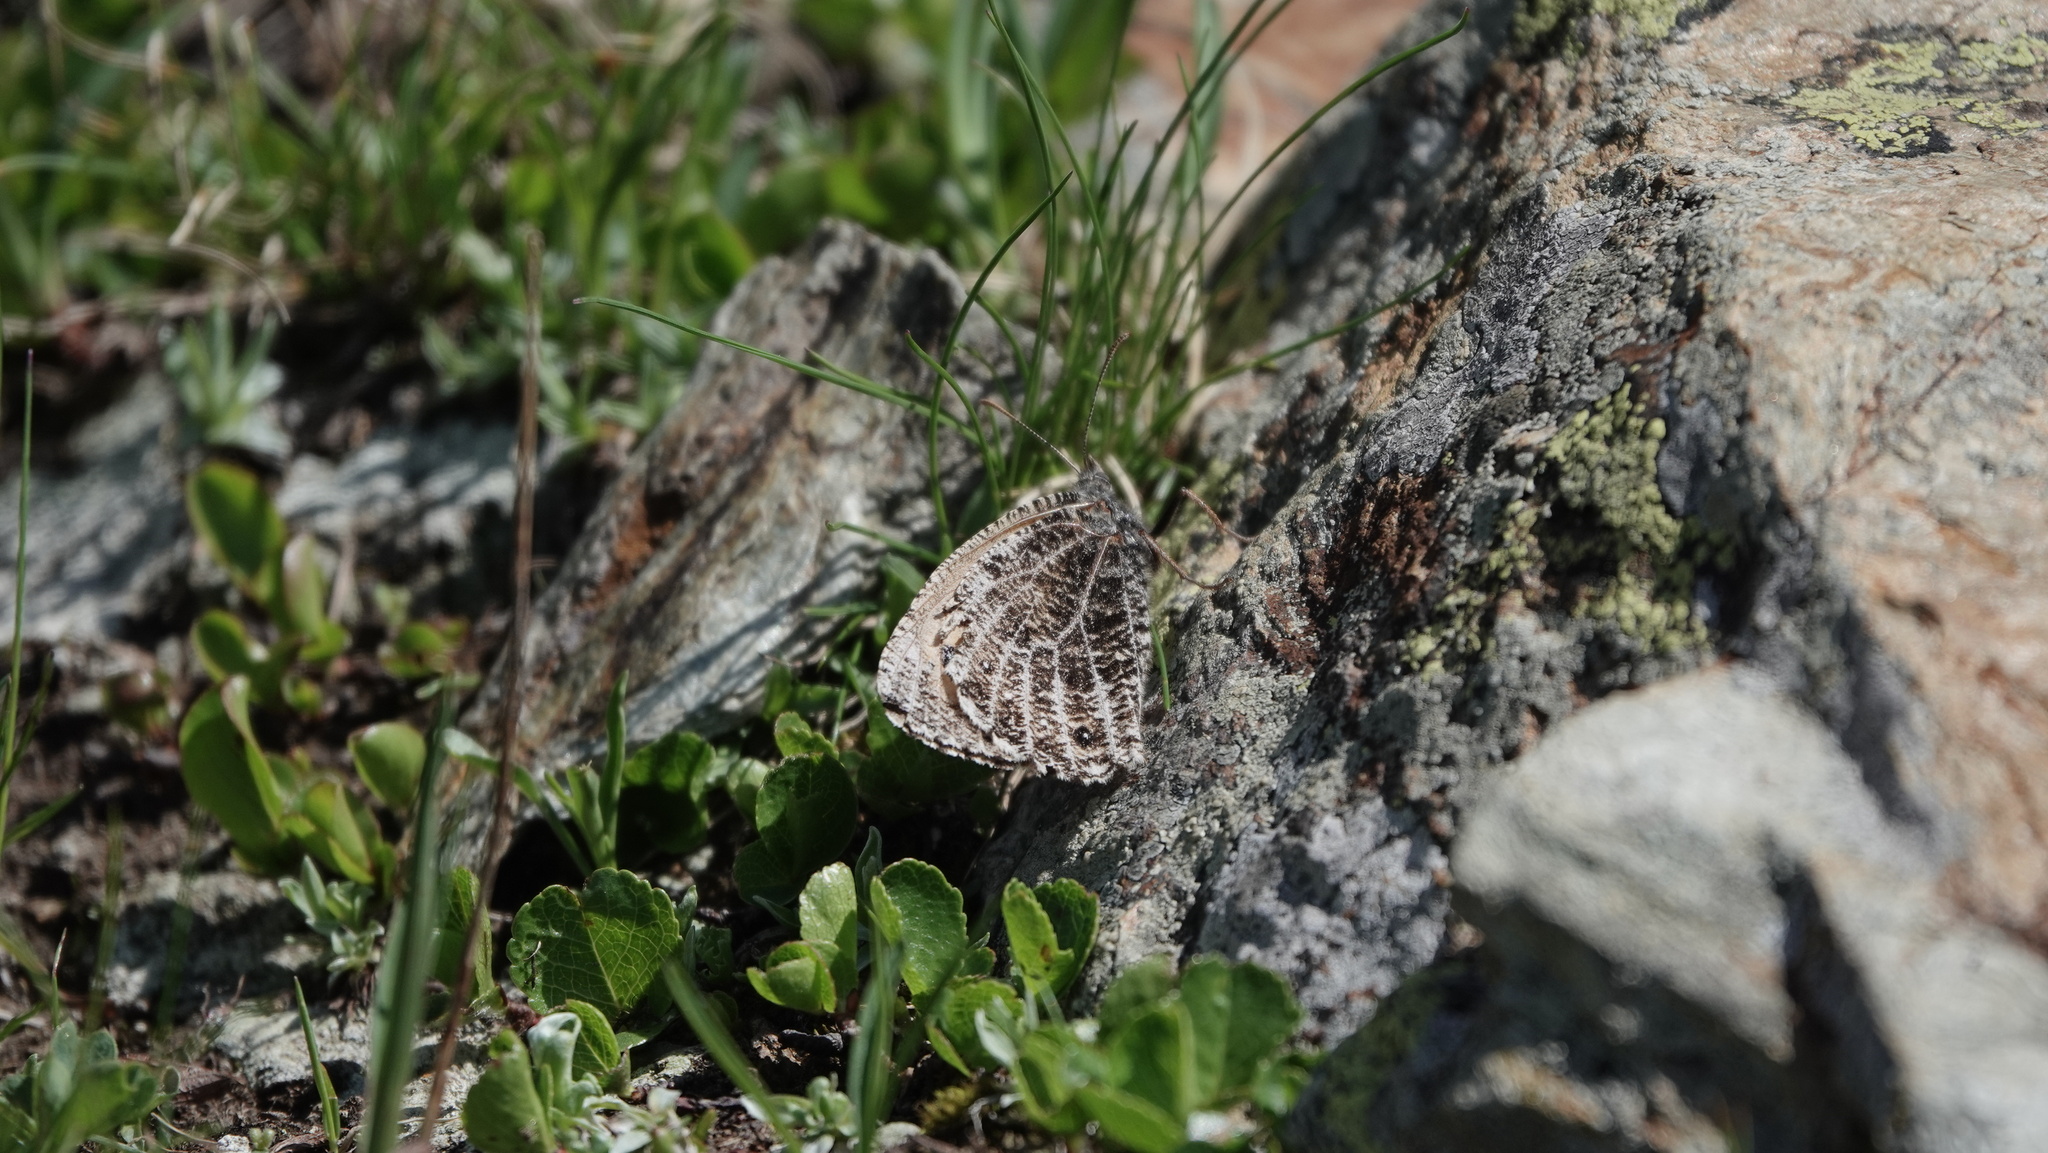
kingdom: Animalia
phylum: Arthropoda
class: Insecta
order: Lepidoptera
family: Nymphalidae
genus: Oeneis
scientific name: Oeneis aello
